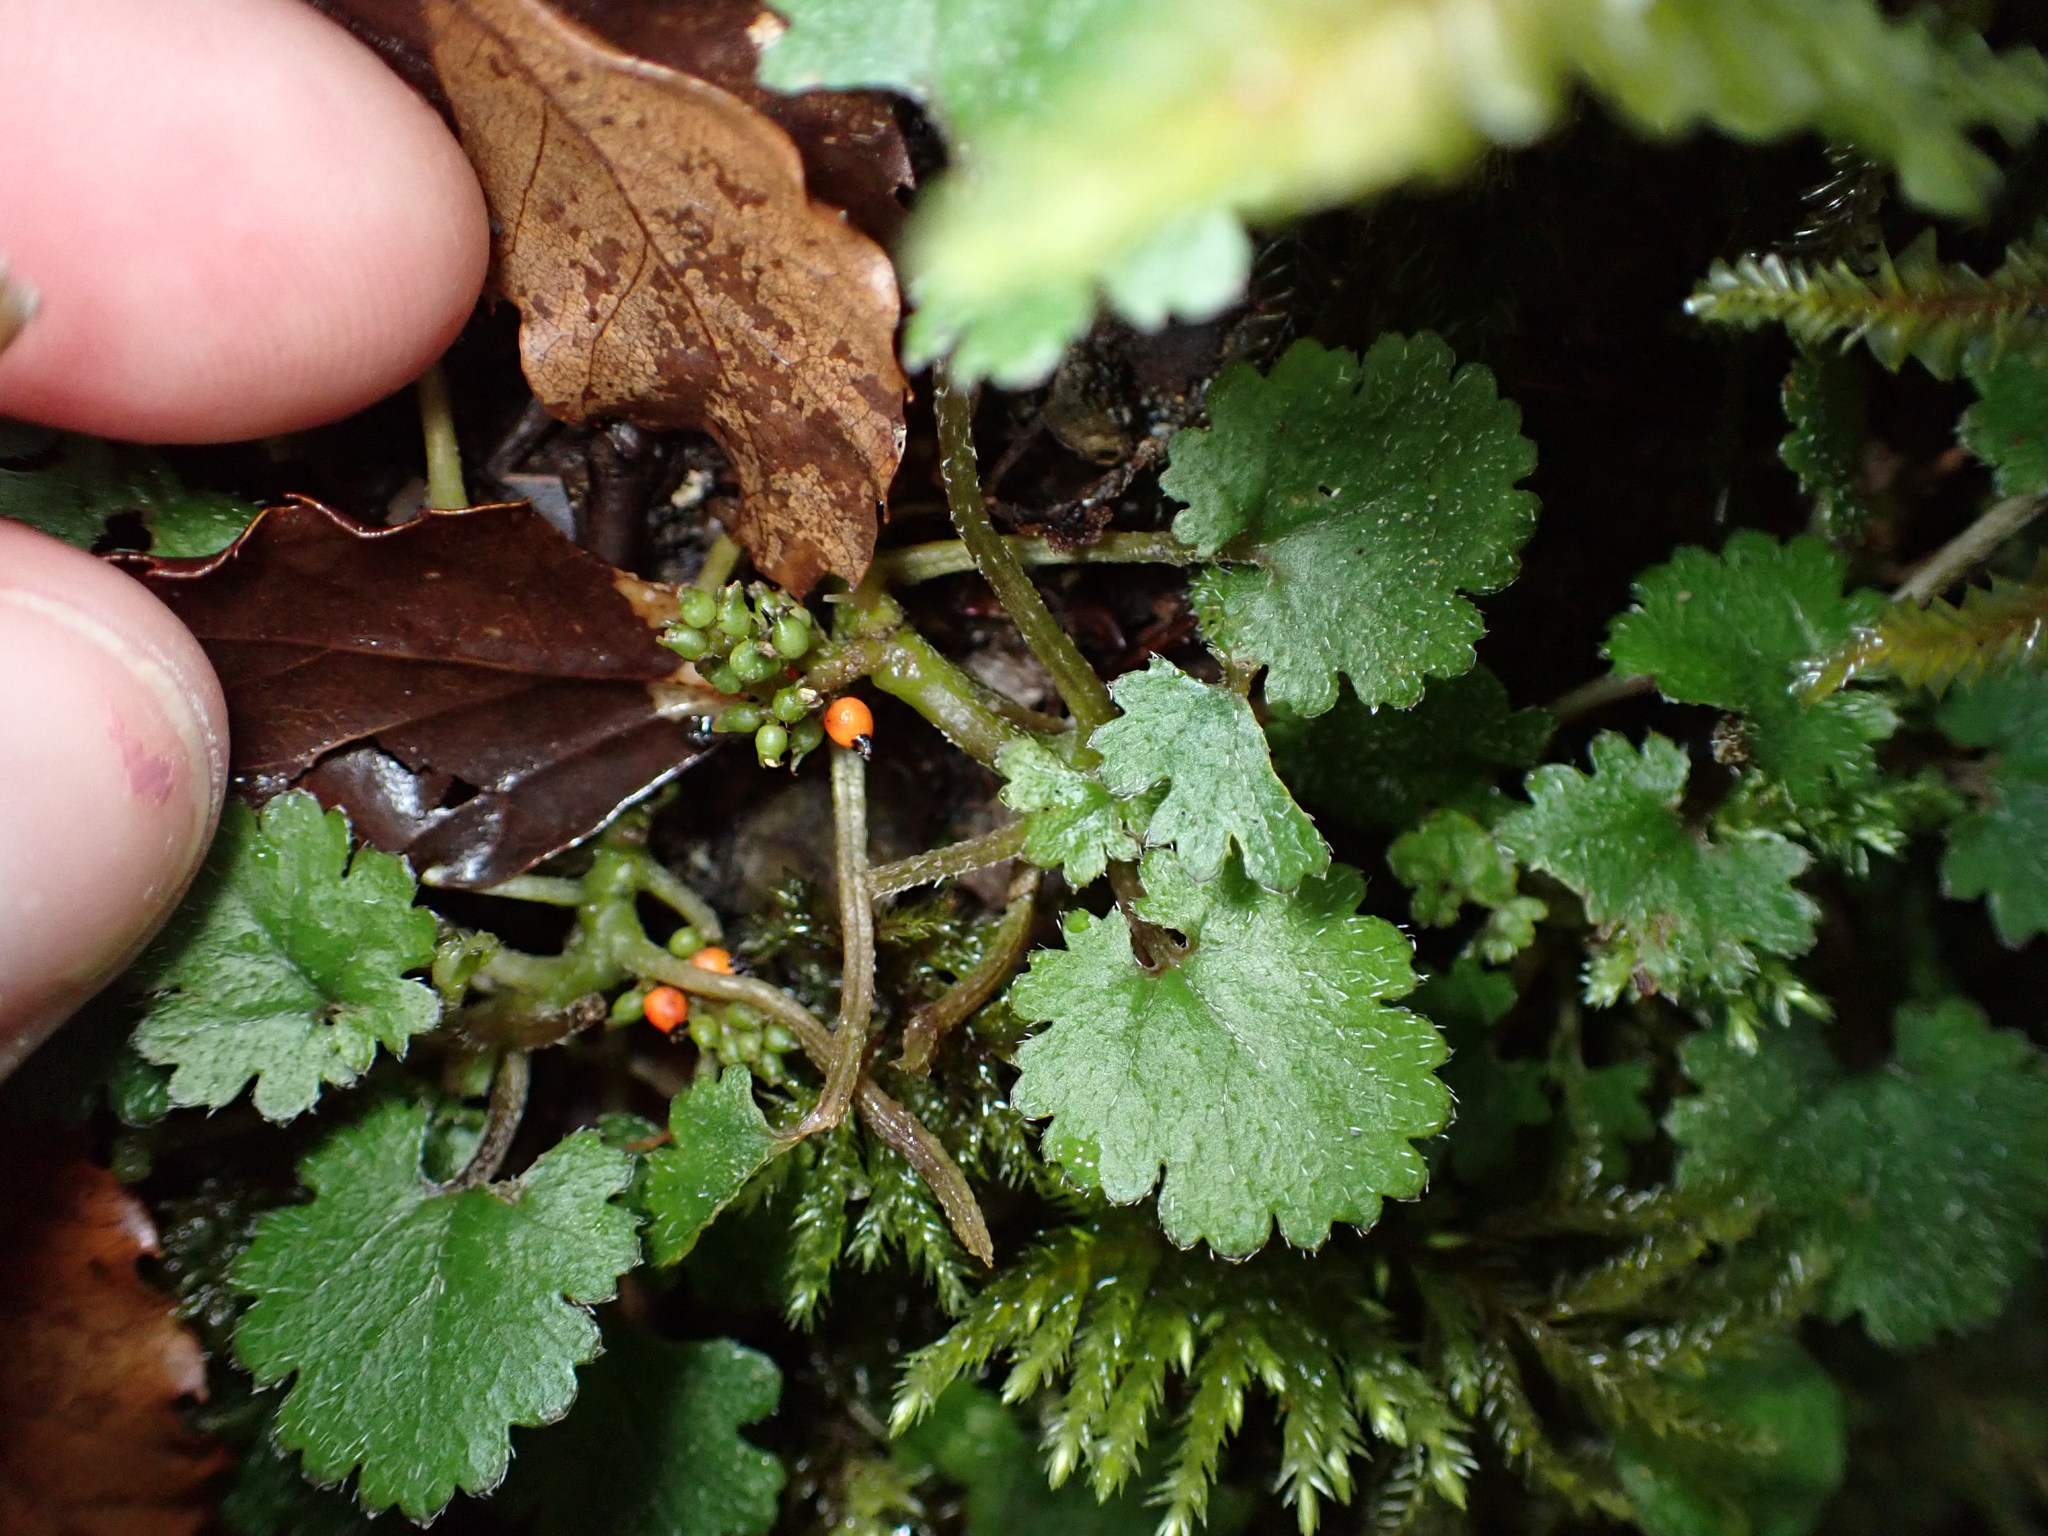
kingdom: Plantae
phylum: Tracheophyta
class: Magnoliopsida
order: Gunnerales
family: Gunneraceae
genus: Gunnera
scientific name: Gunnera monoica
